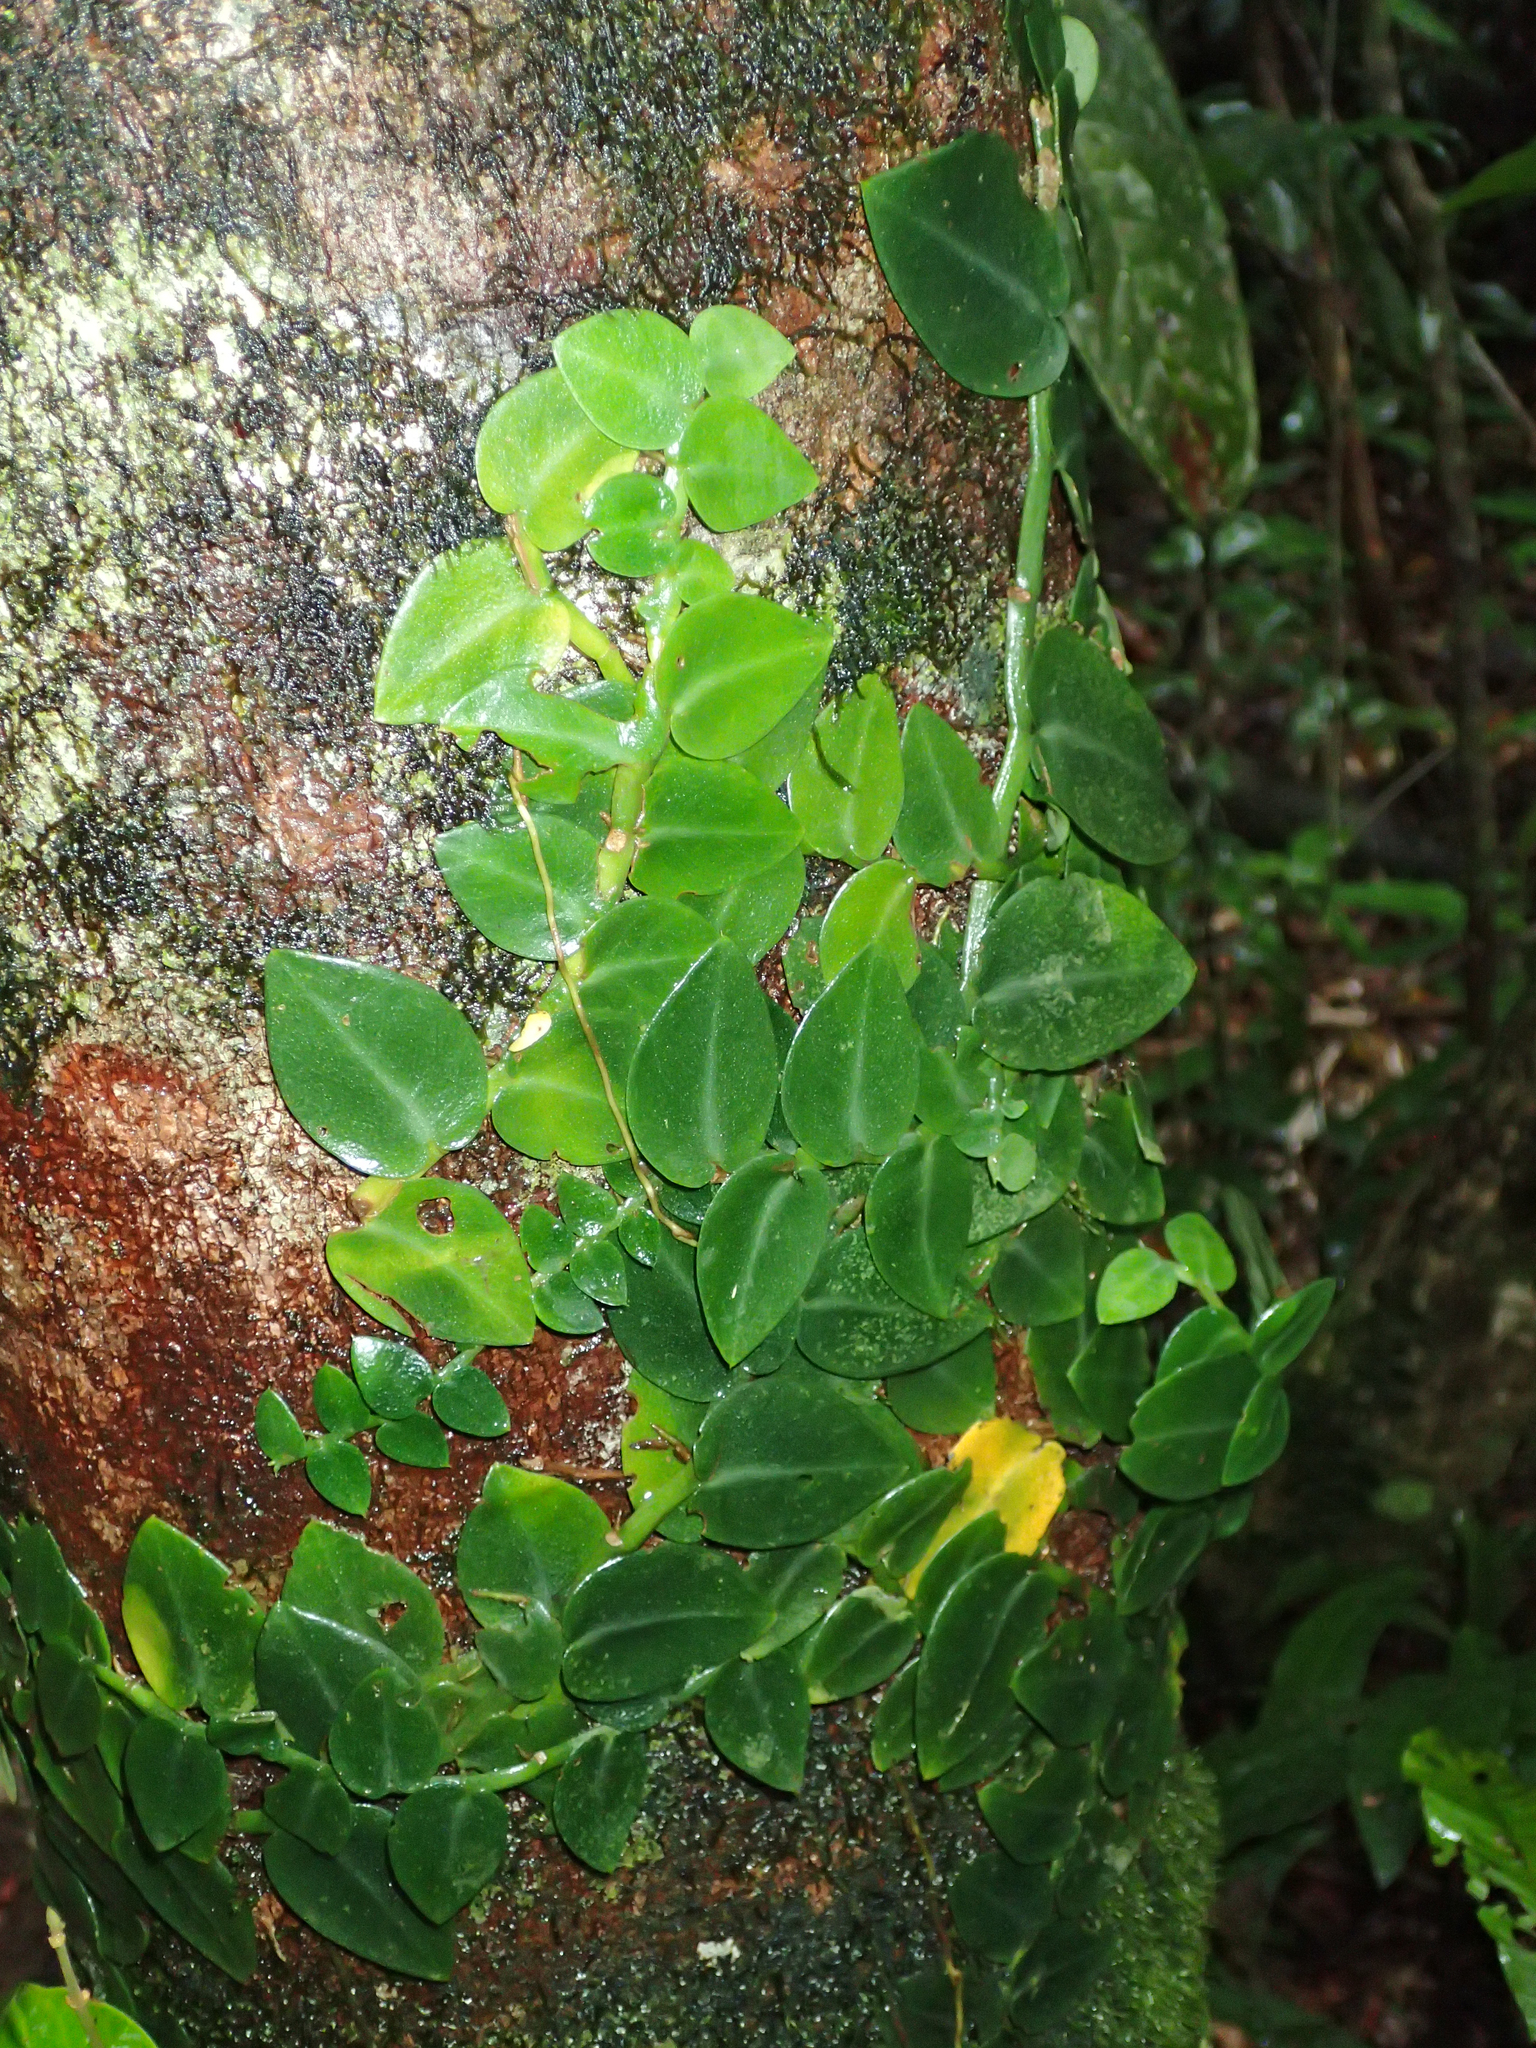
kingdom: Plantae
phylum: Tracheophyta
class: Liliopsida
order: Alismatales
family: Araceae
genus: Rhaphidophora
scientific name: Rhaphidophora hayi
